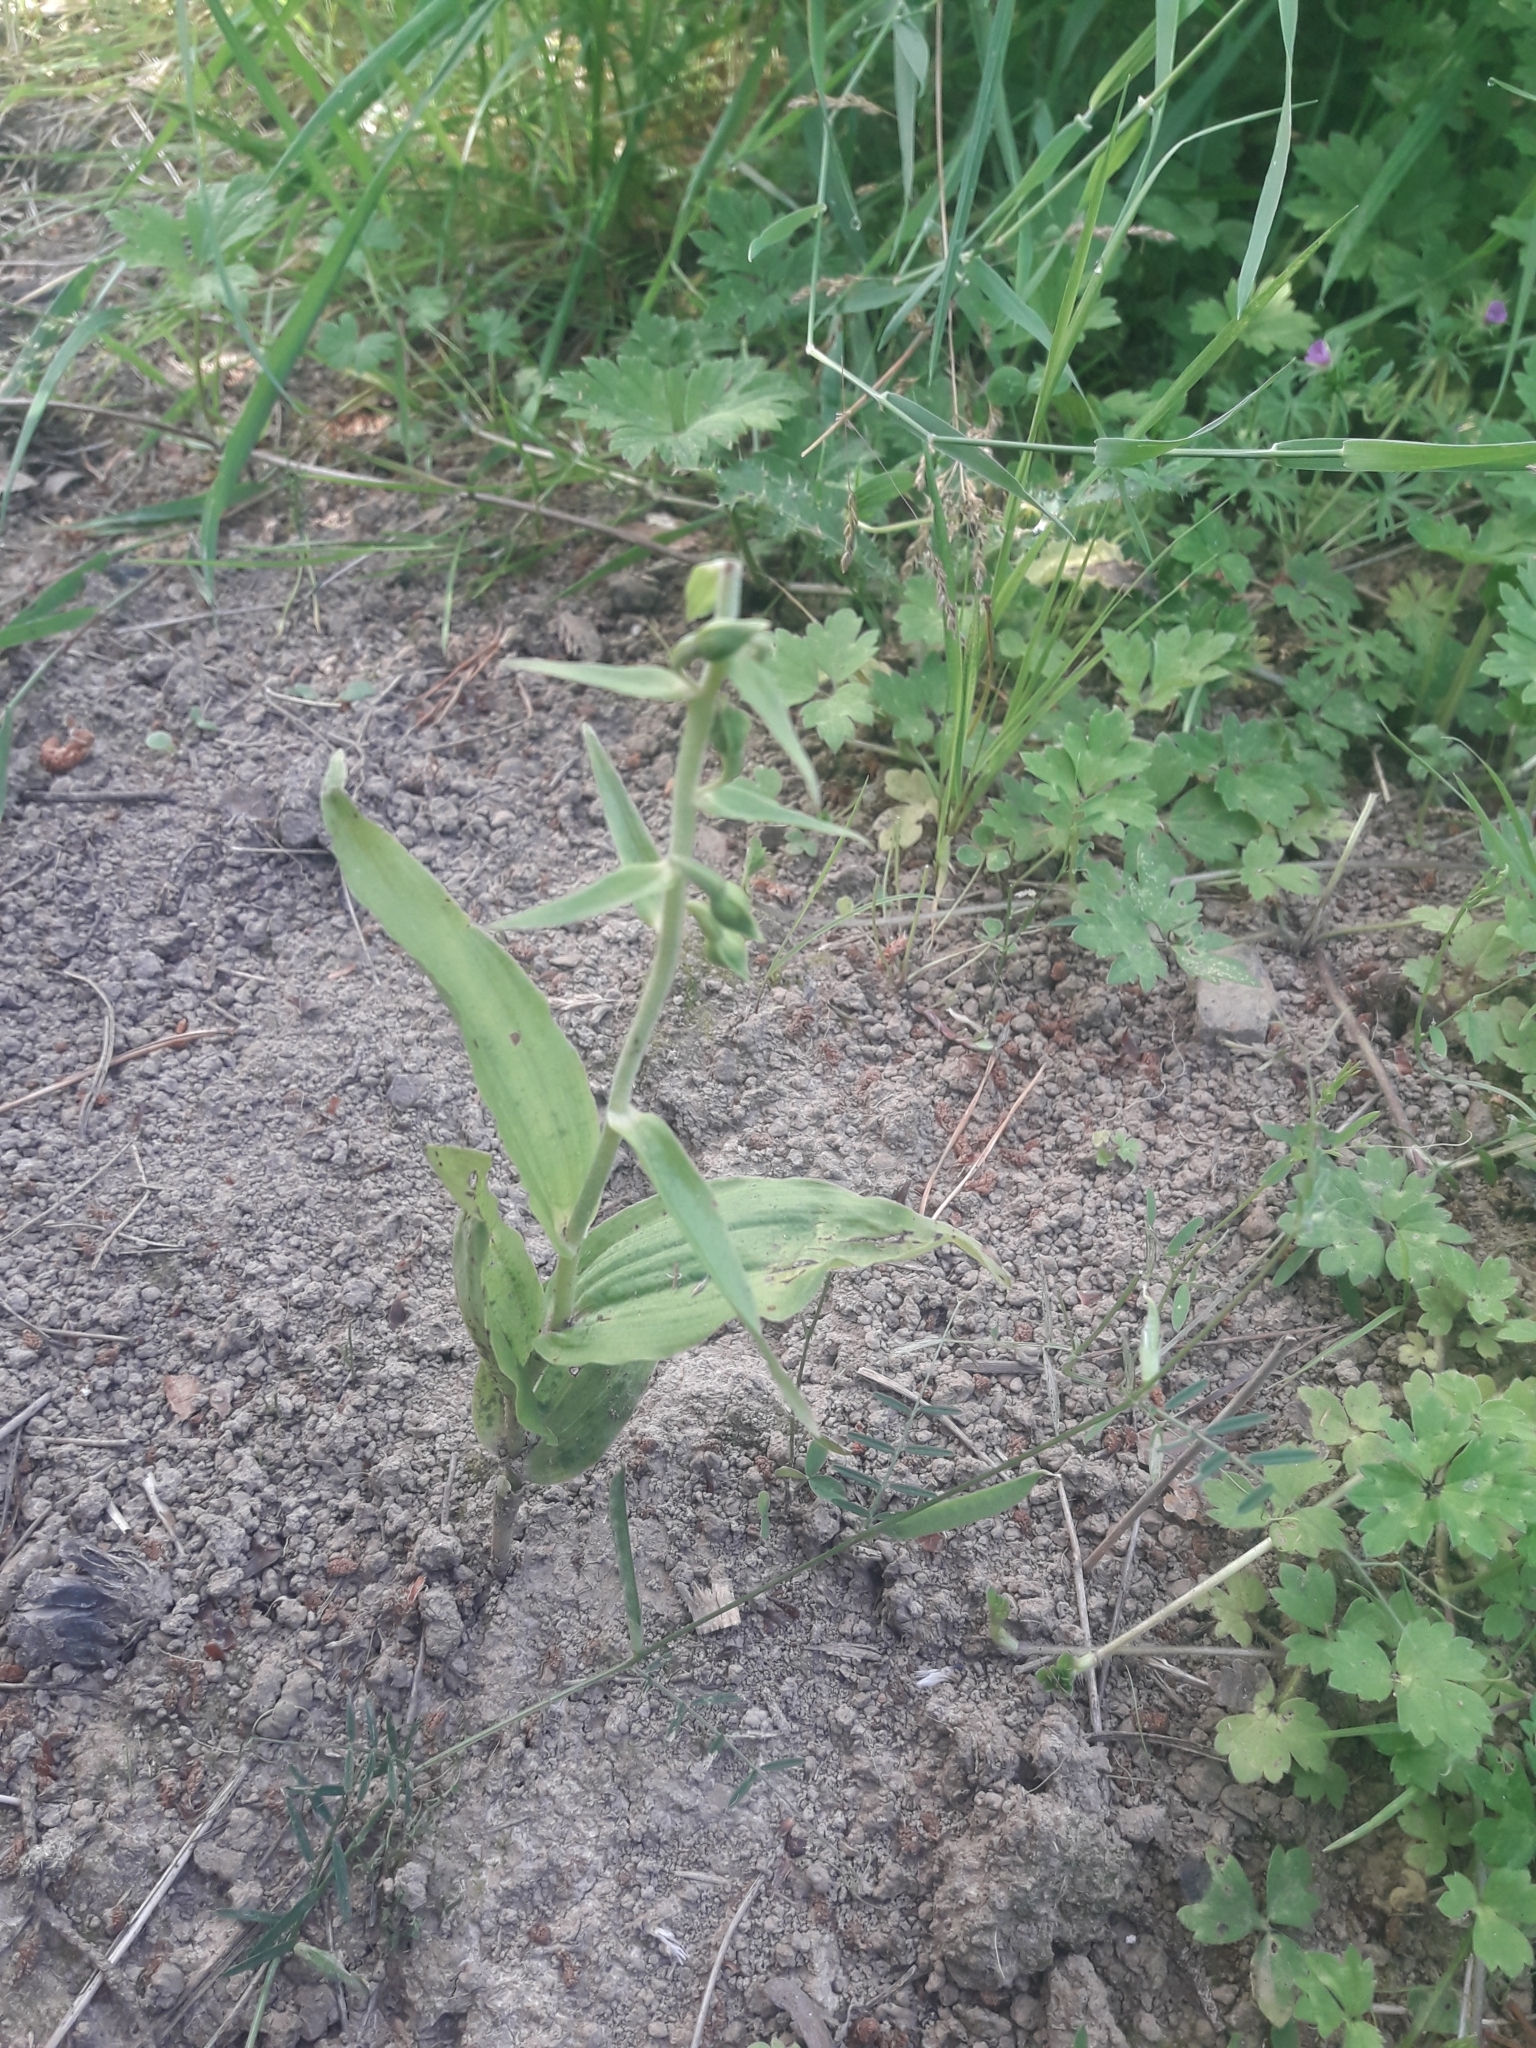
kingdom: Plantae
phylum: Tracheophyta
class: Liliopsida
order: Asparagales
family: Orchidaceae
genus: Epipactis
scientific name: Epipactis helleborine
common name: Broad-leaved helleborine
